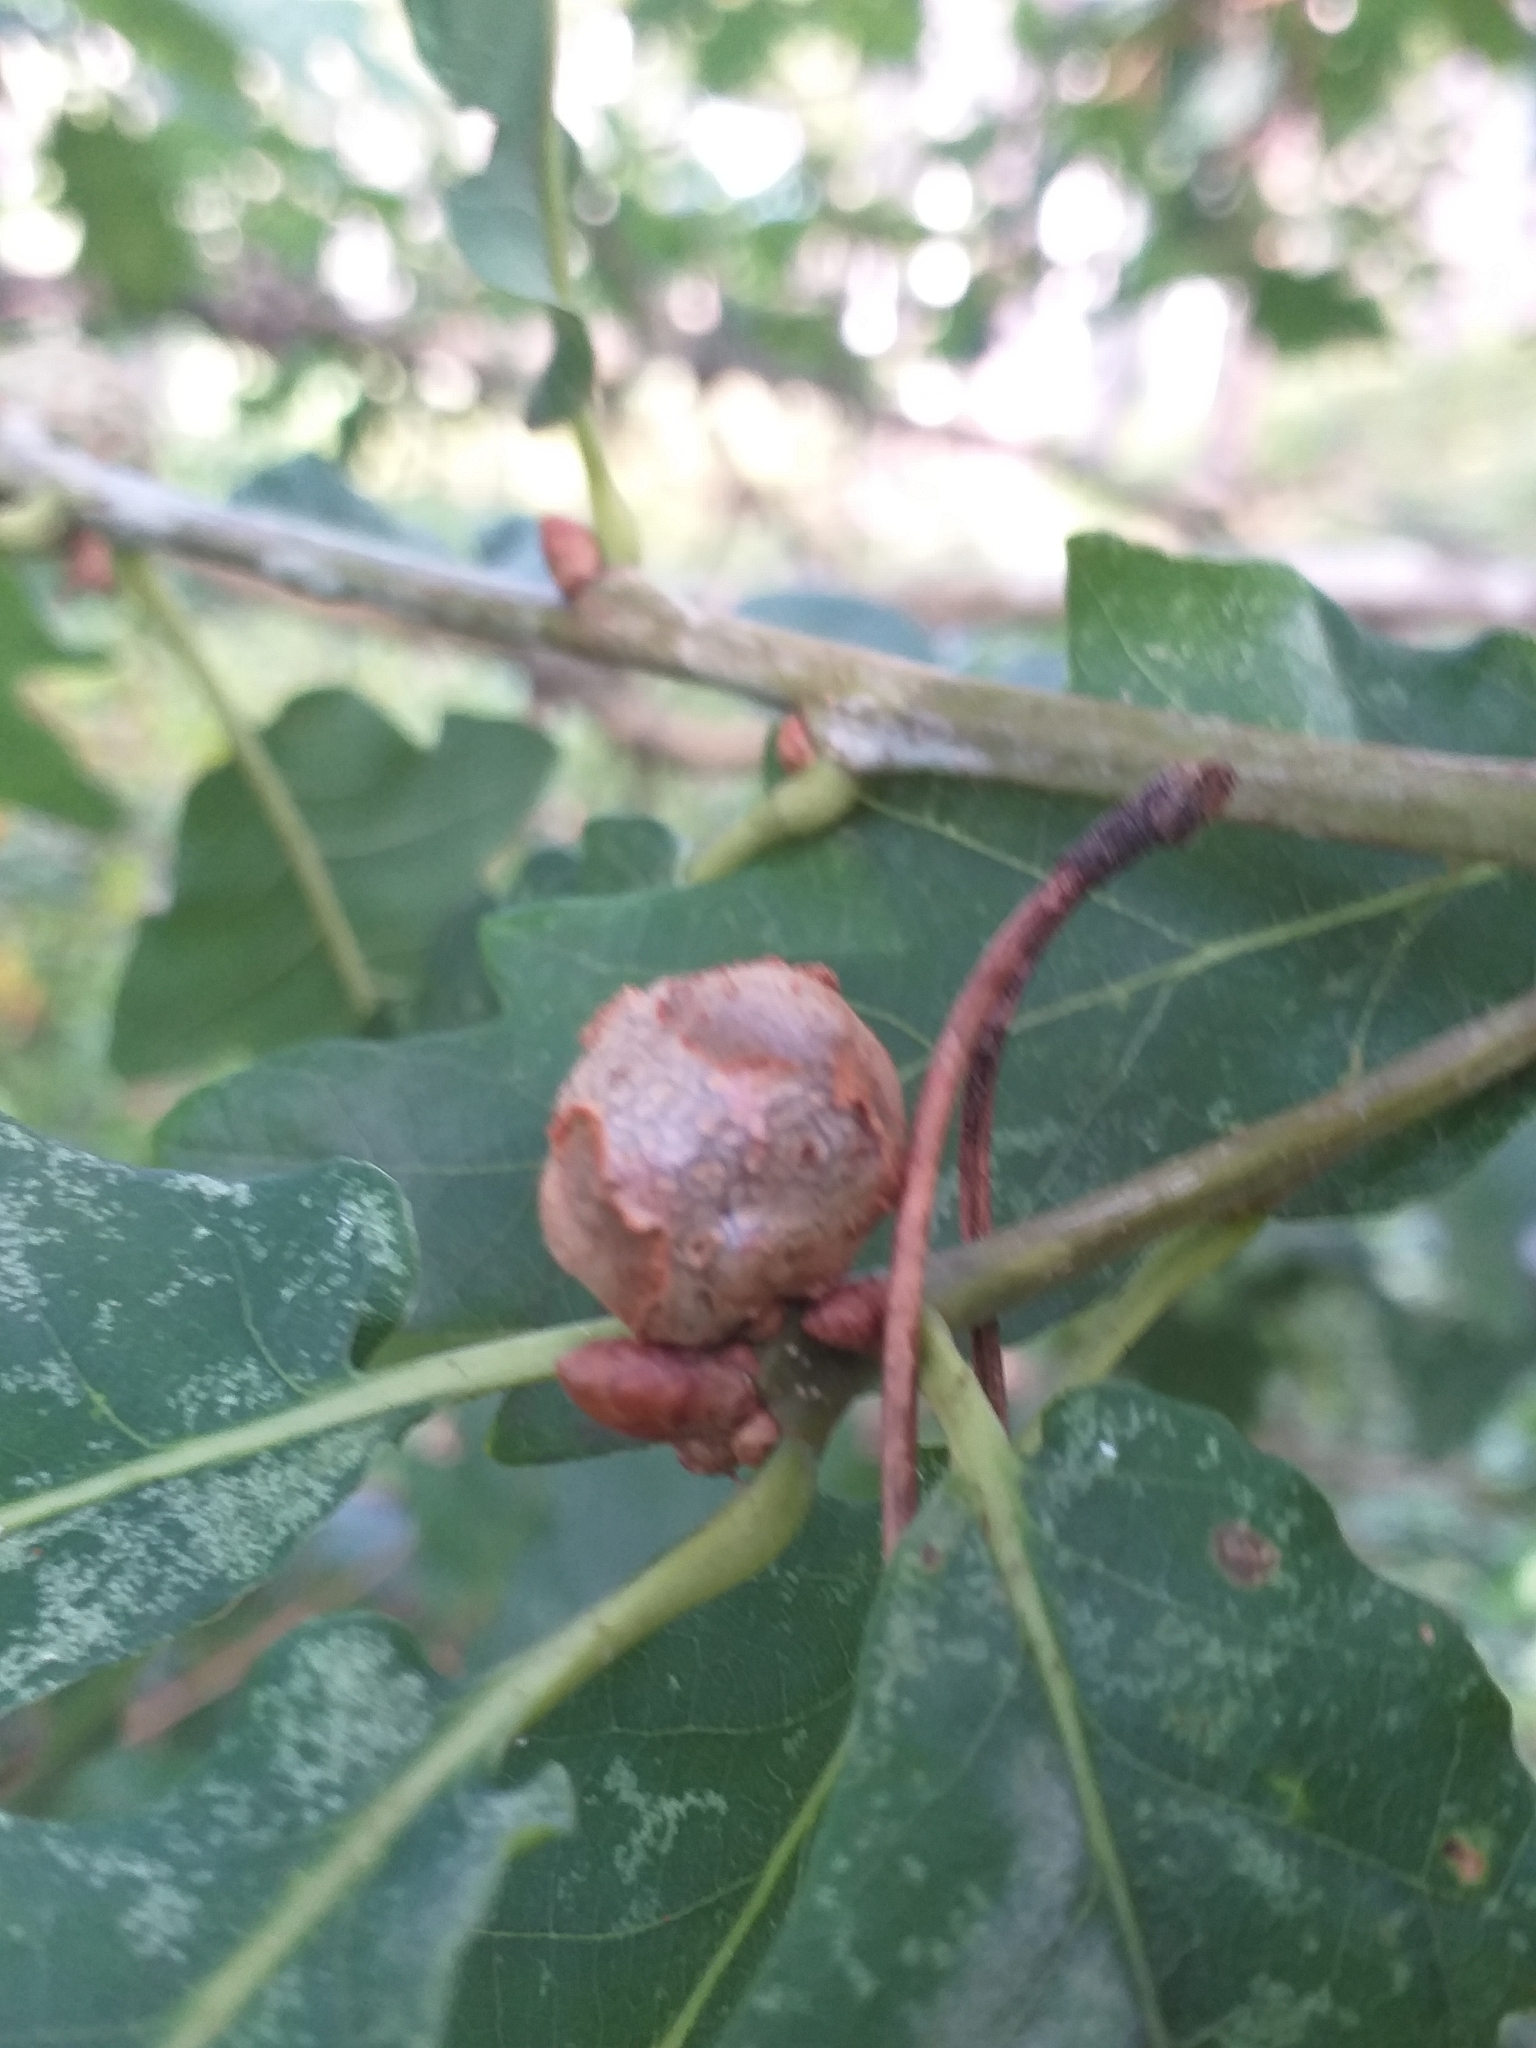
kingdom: Animalia
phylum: Arthropoda
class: Insecta
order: Hymenoptera
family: Cynipidae
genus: Andricus
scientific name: Andricus lignicolus
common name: Cola-nut gall
